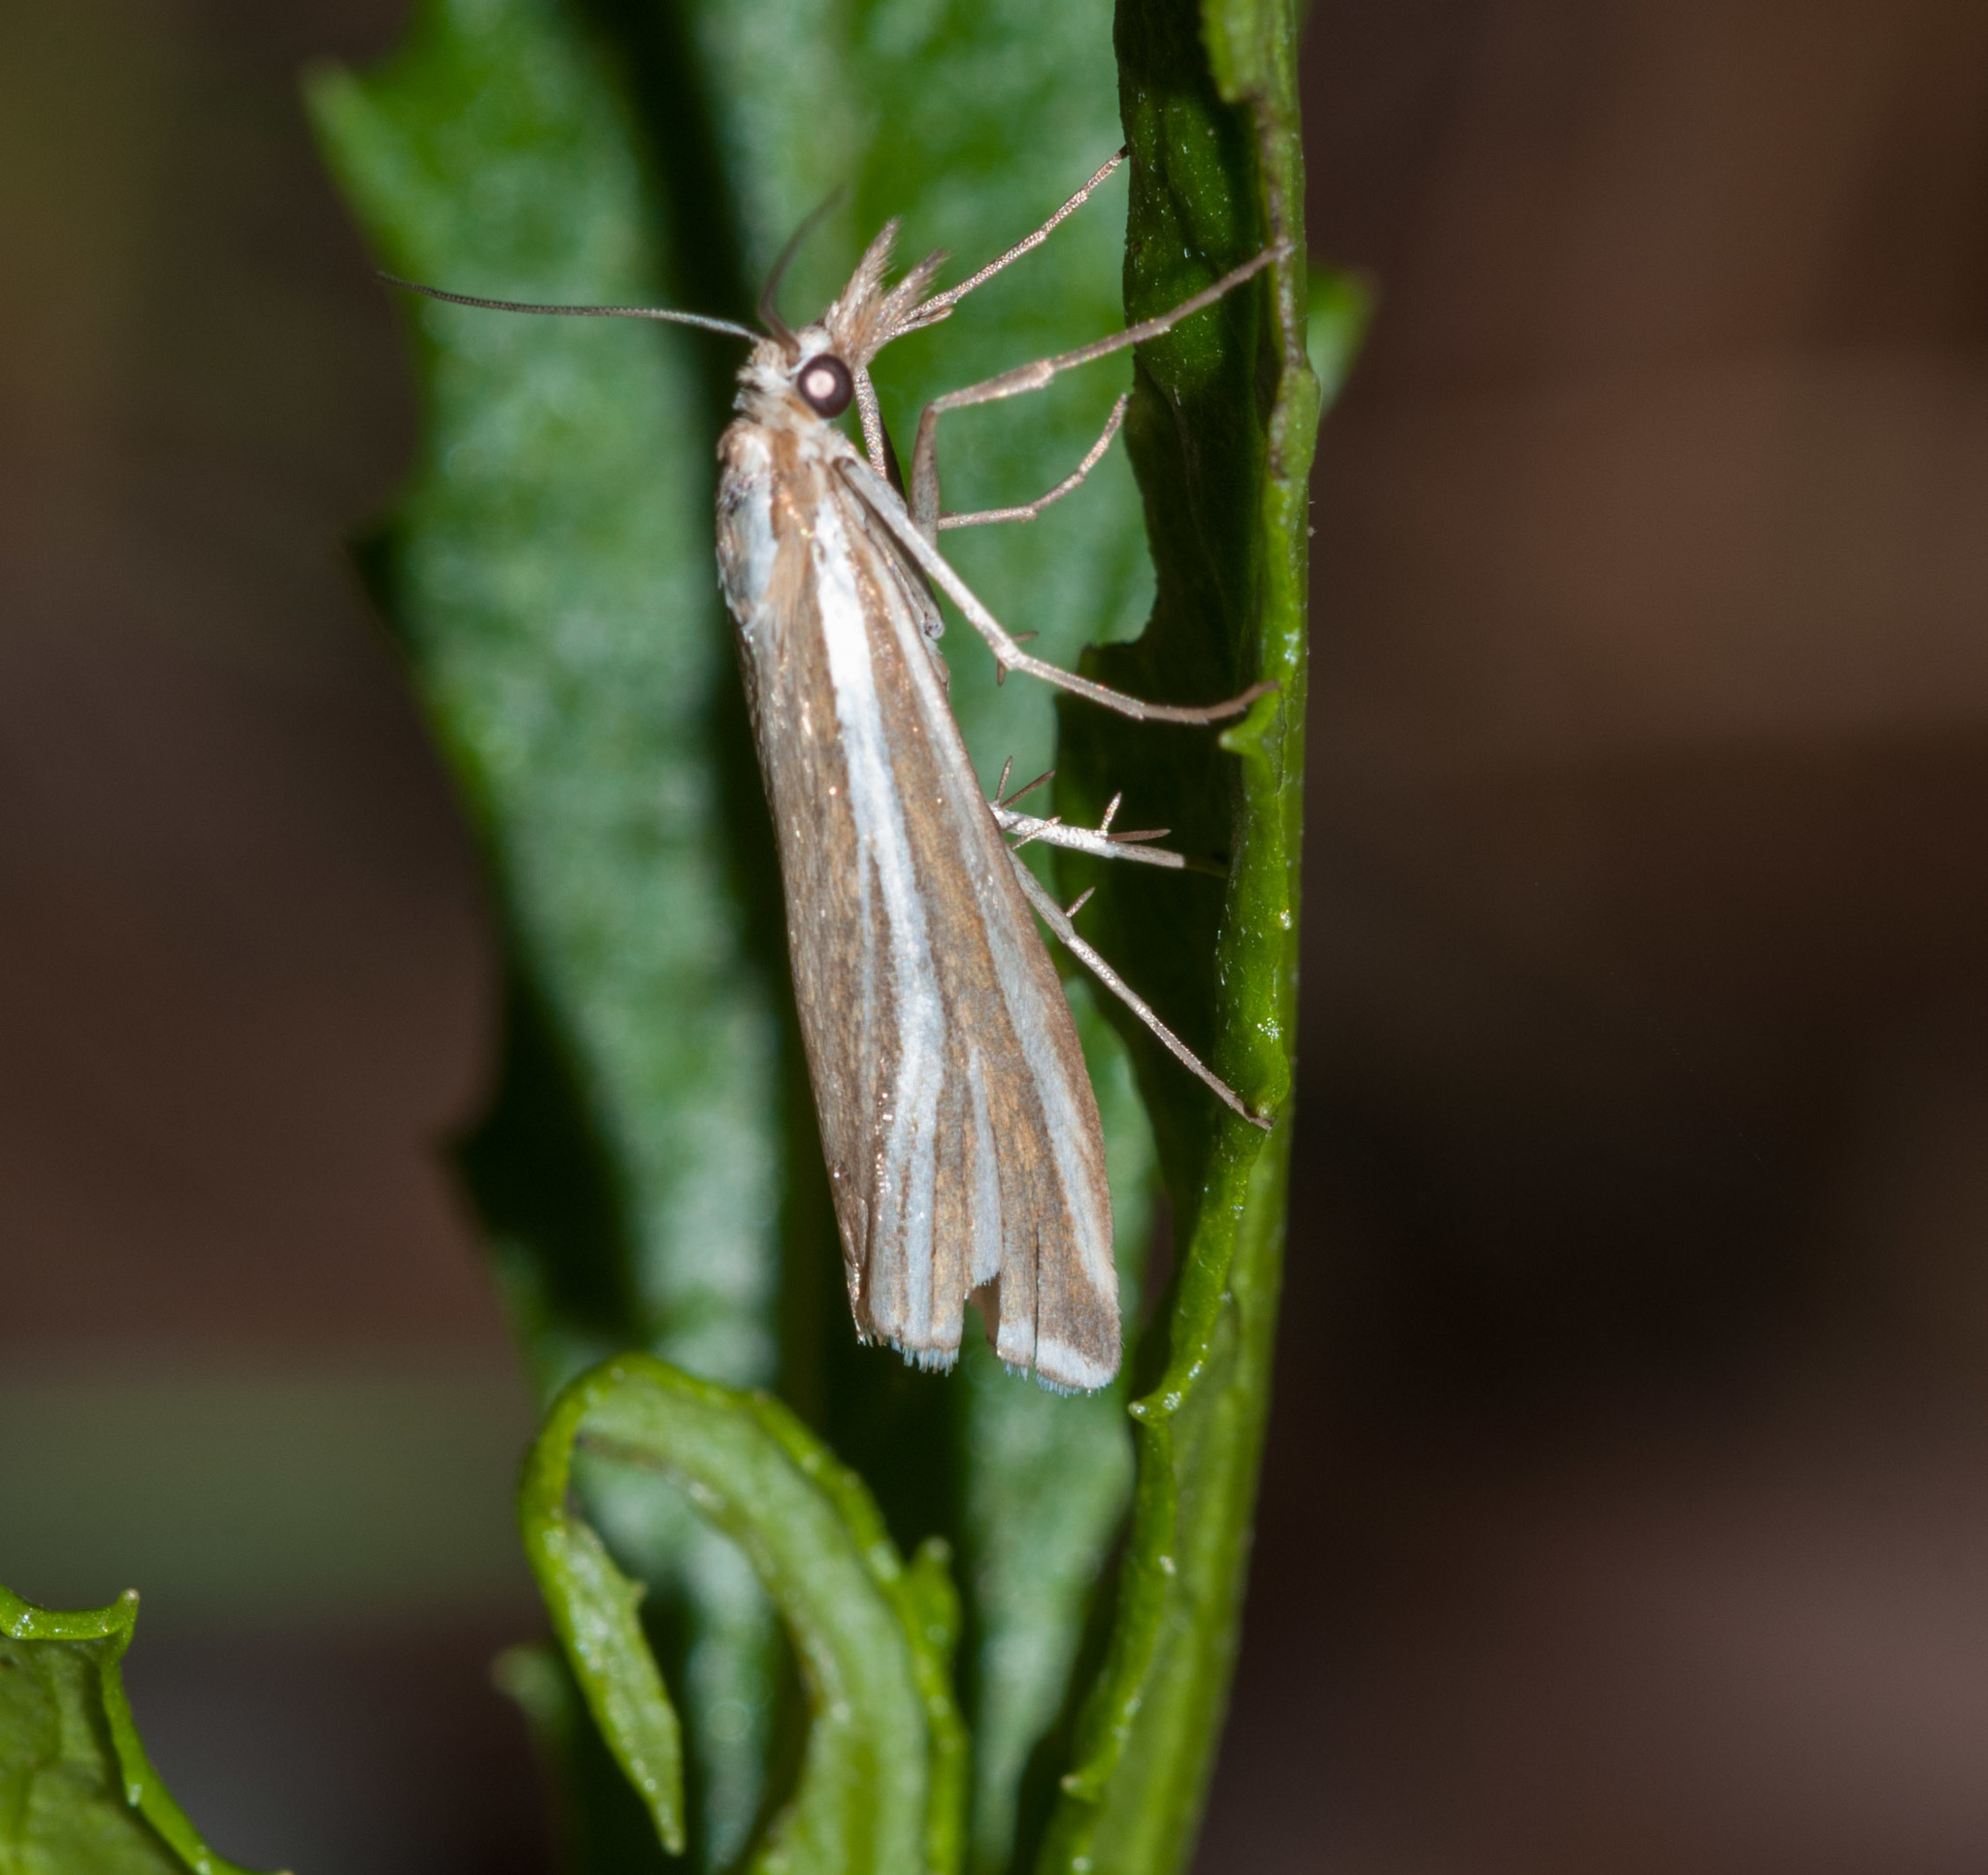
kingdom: Animalia
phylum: Arthropoda
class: Insecta
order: Lepidoptera
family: Crambidae
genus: Hednota
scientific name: Hednota relatalis
